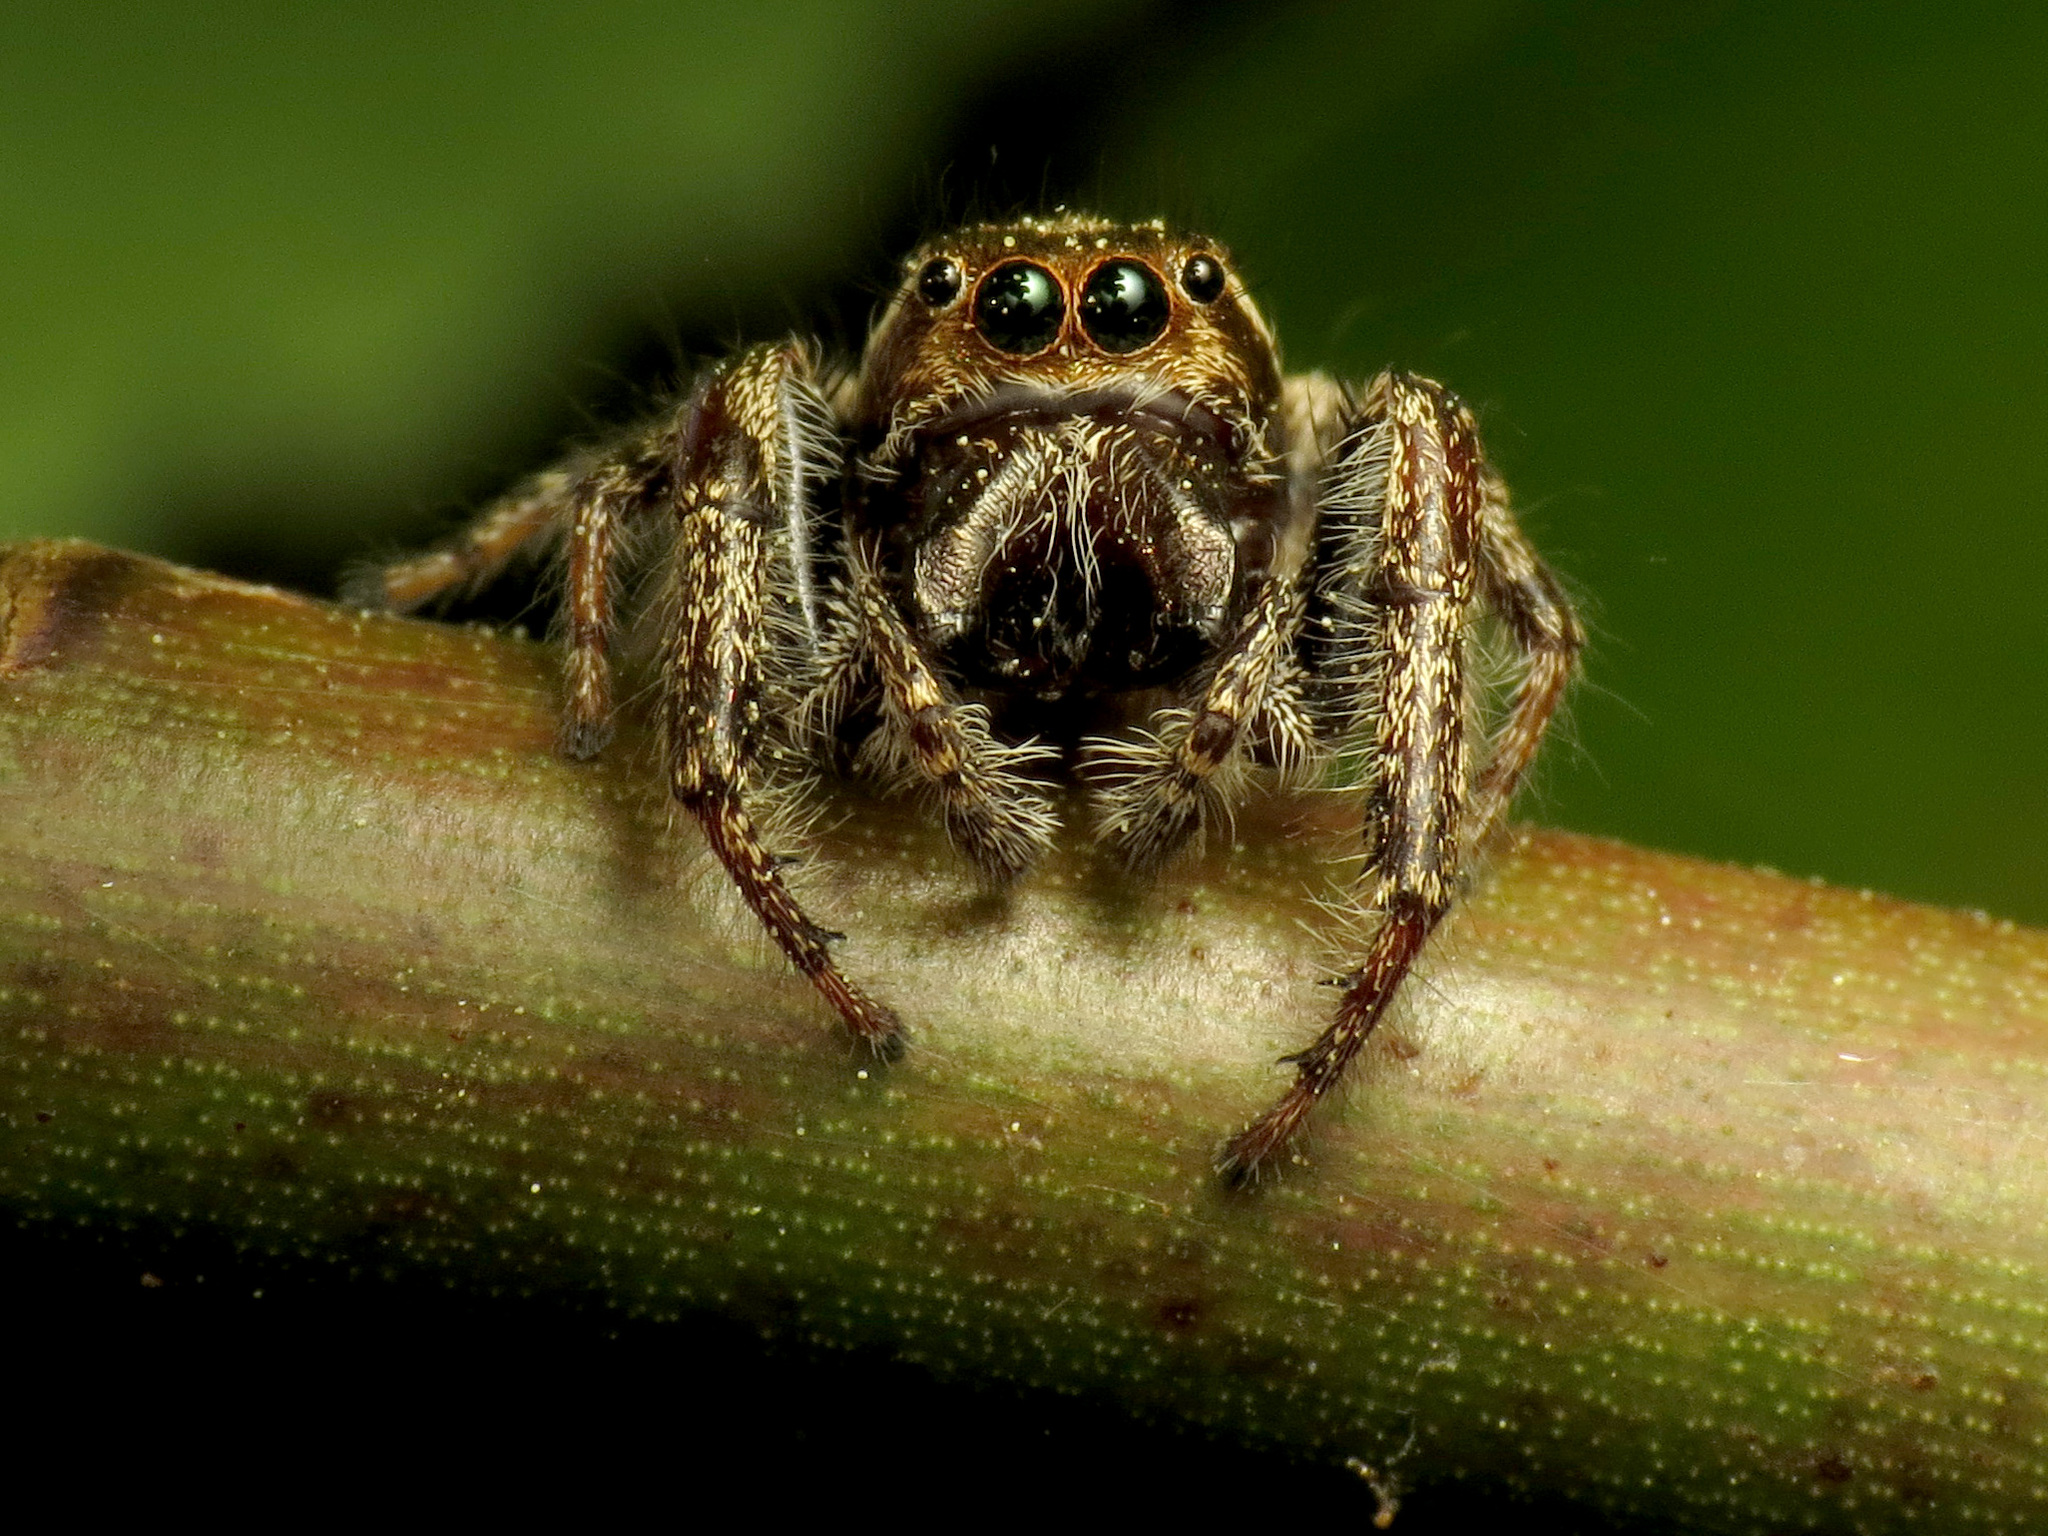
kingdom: Animalia
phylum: Arthropoda
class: Arachnida
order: Araneae
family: Salticidae
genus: Eris
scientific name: Eris militaris
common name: Bronze jumper
